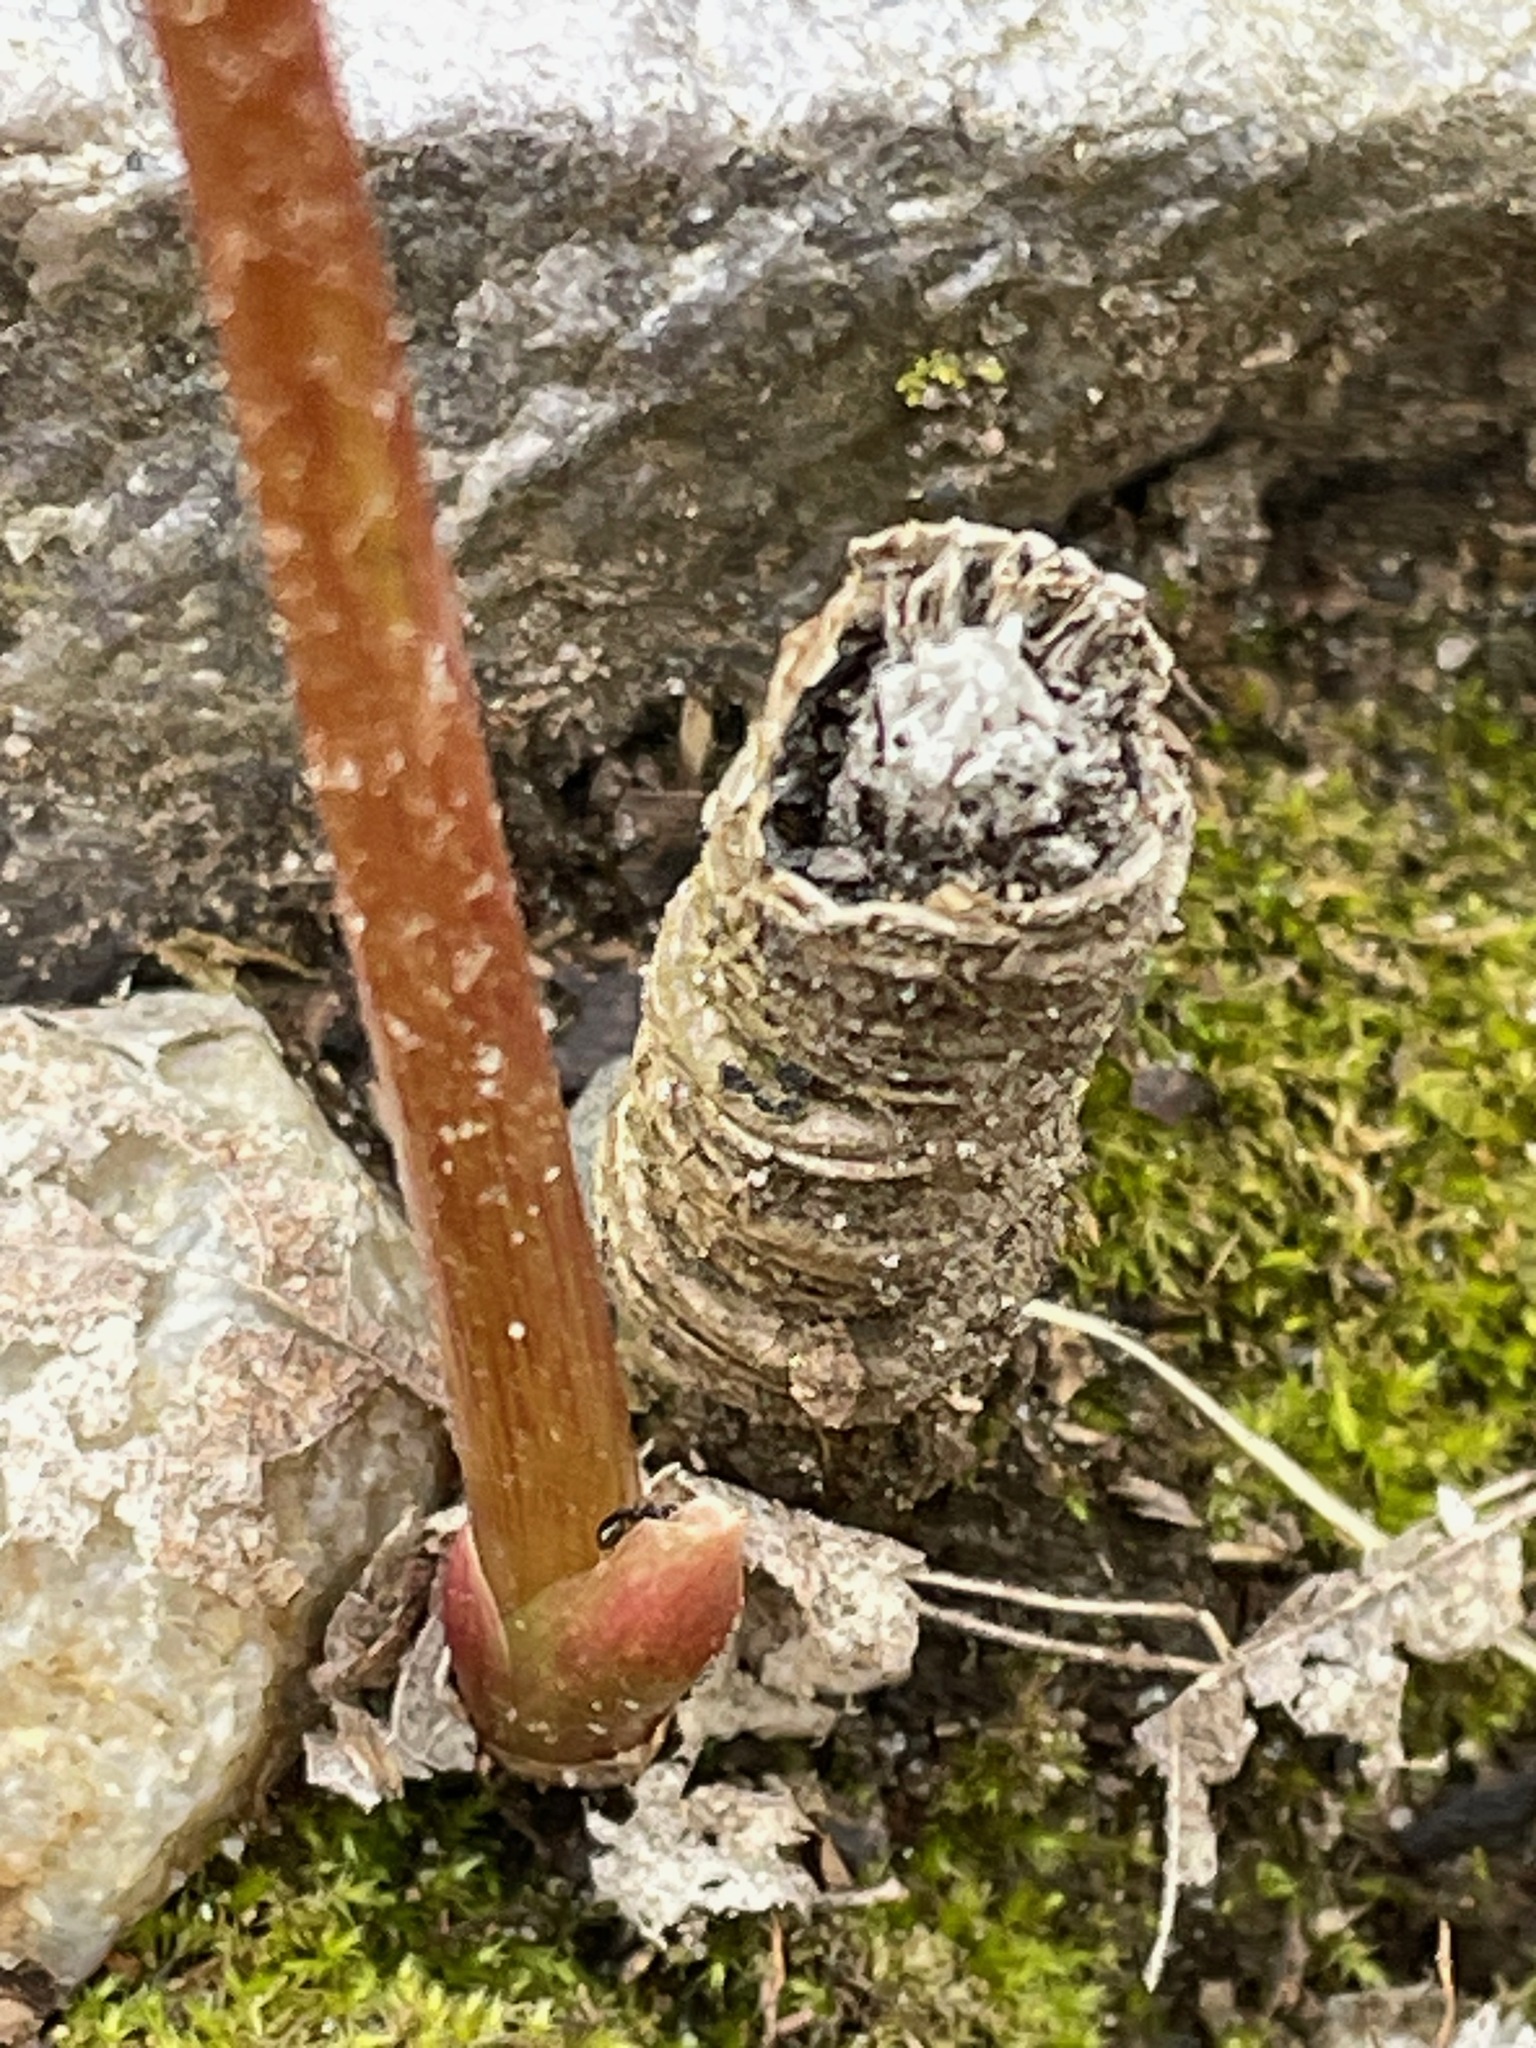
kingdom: Plantae
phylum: Tracheophyta
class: Magnoliopsida
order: Apiales
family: Araliaceae
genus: Aralia
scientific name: Aralia nudicaulis
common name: Wild sarsaparilla
